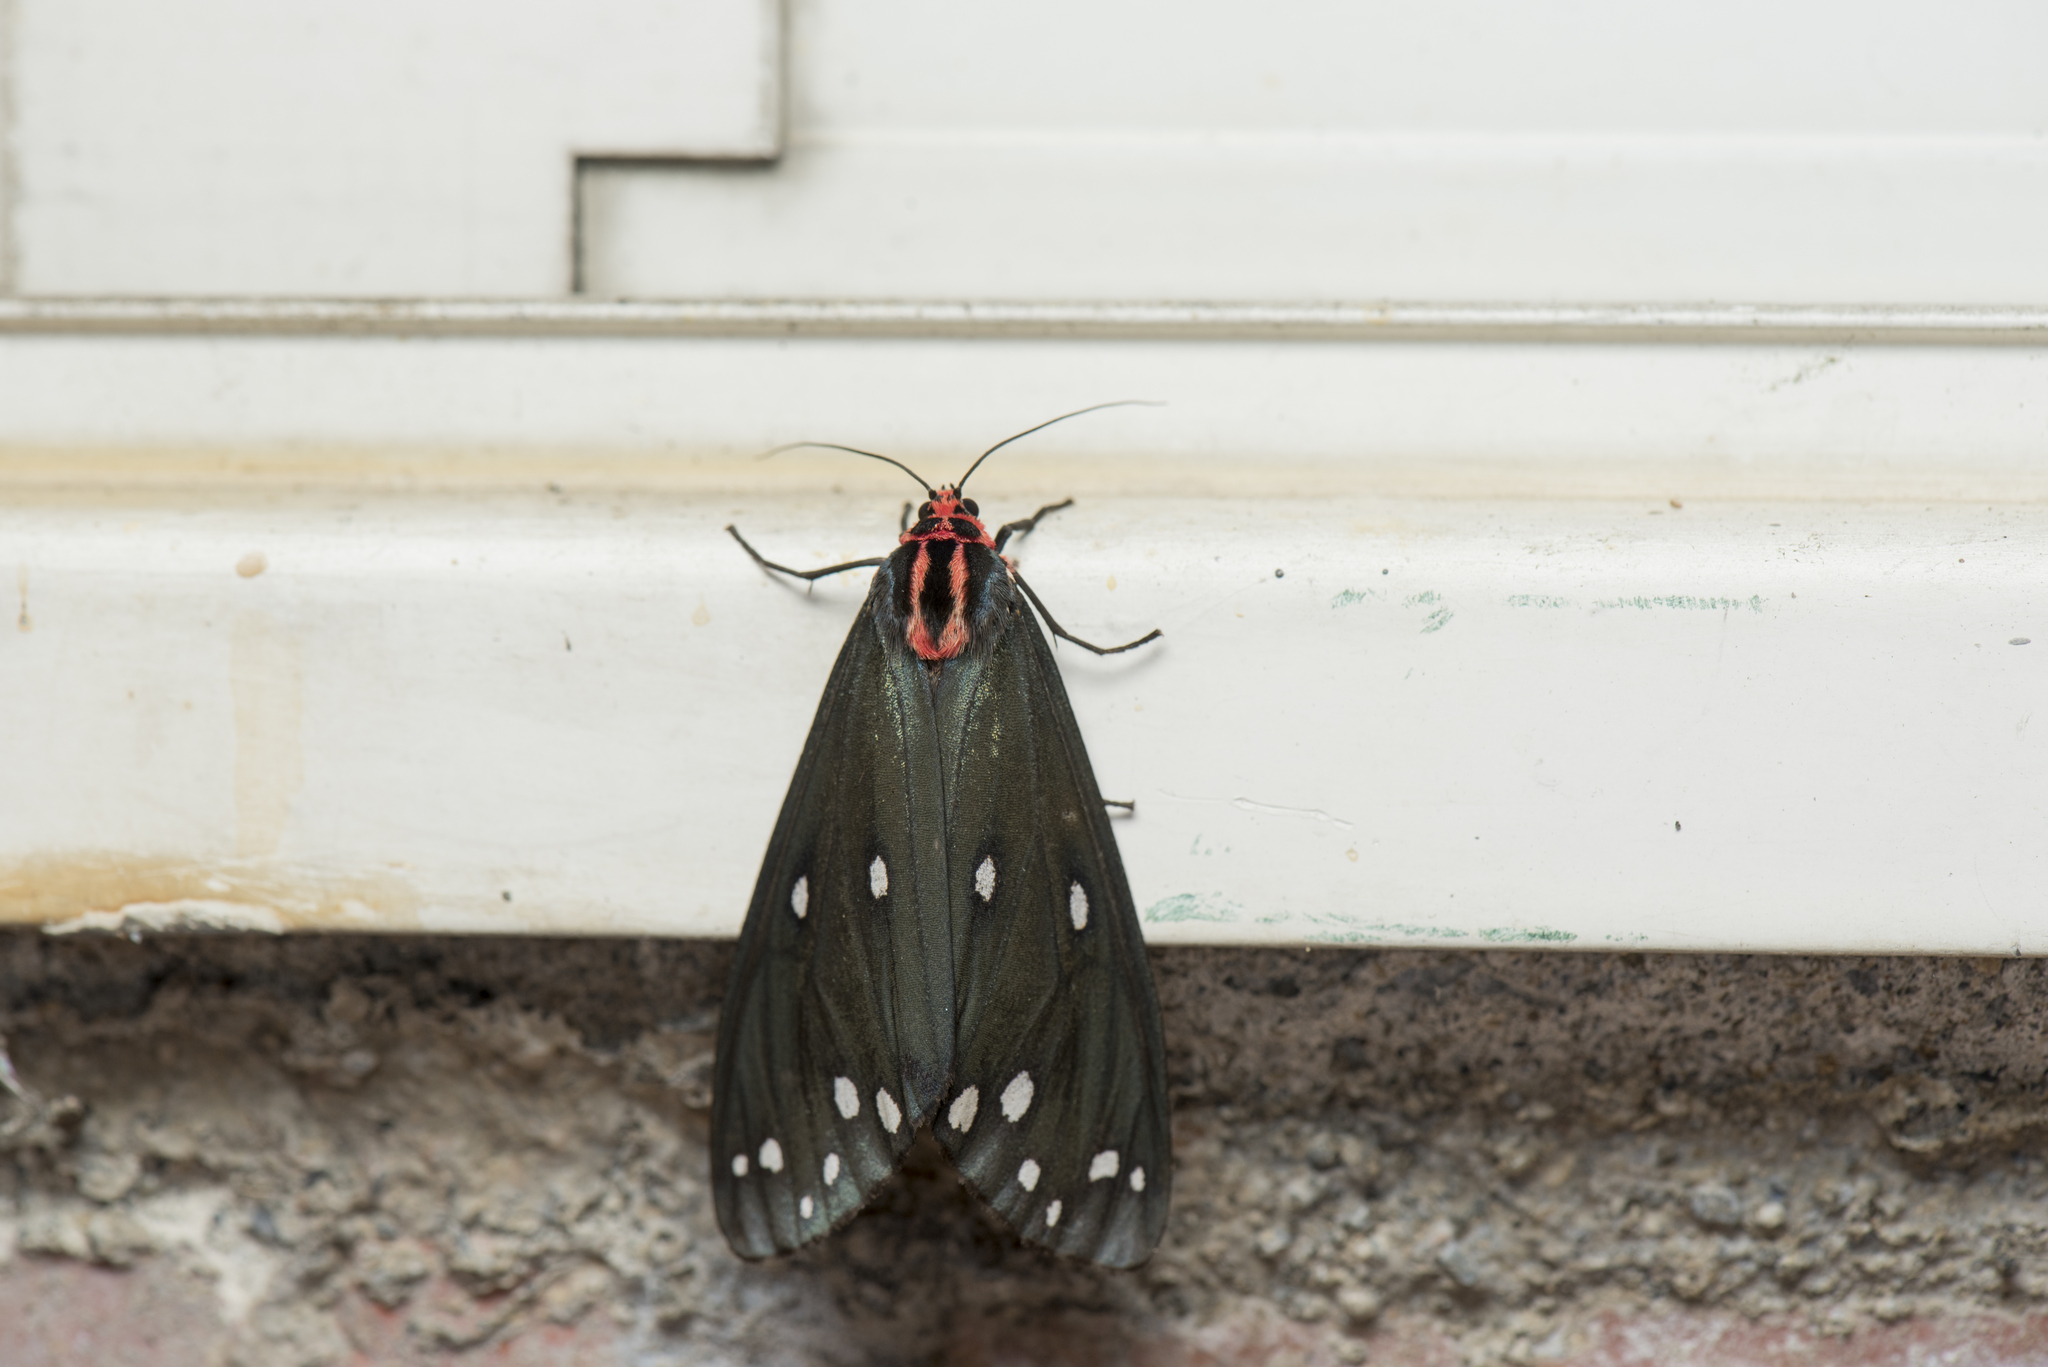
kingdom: Animalia
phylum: Arthropoda
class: Insecta
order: Lepidoptera
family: Erebidae
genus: Taicallimorpha
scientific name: Taicallimorpha albipuncta
